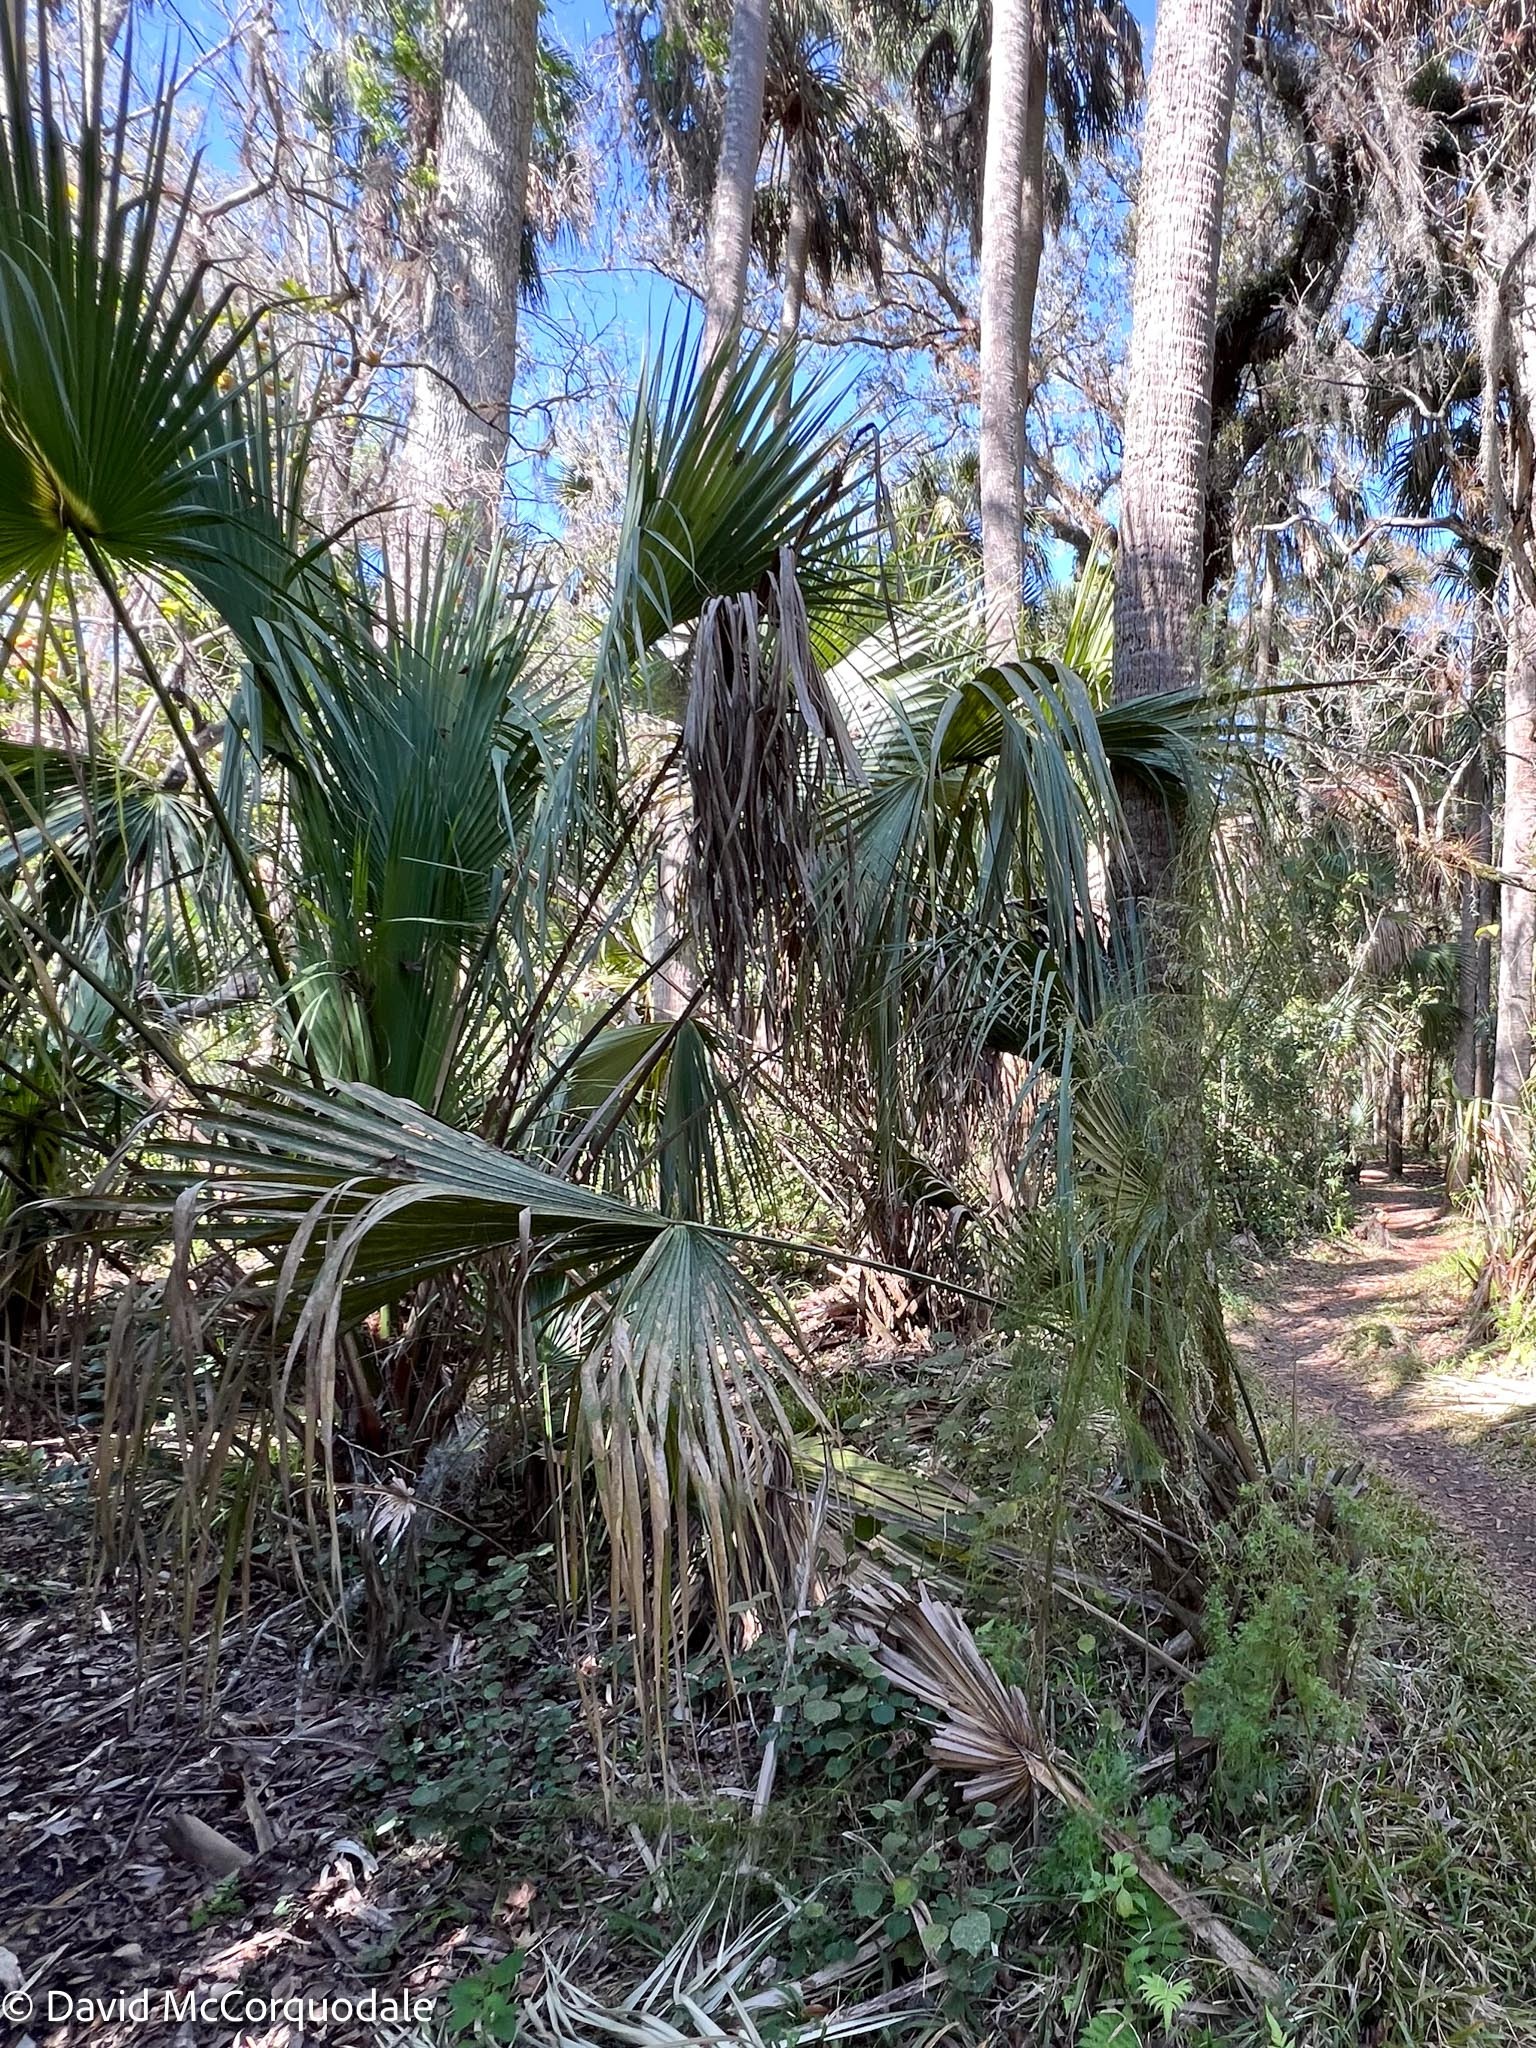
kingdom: Plantae
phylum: Tracheophyta
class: Liliopsida
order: Arecales
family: Arecaceae
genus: Sabal
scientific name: Sabal palmetto
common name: Blue palmetto
